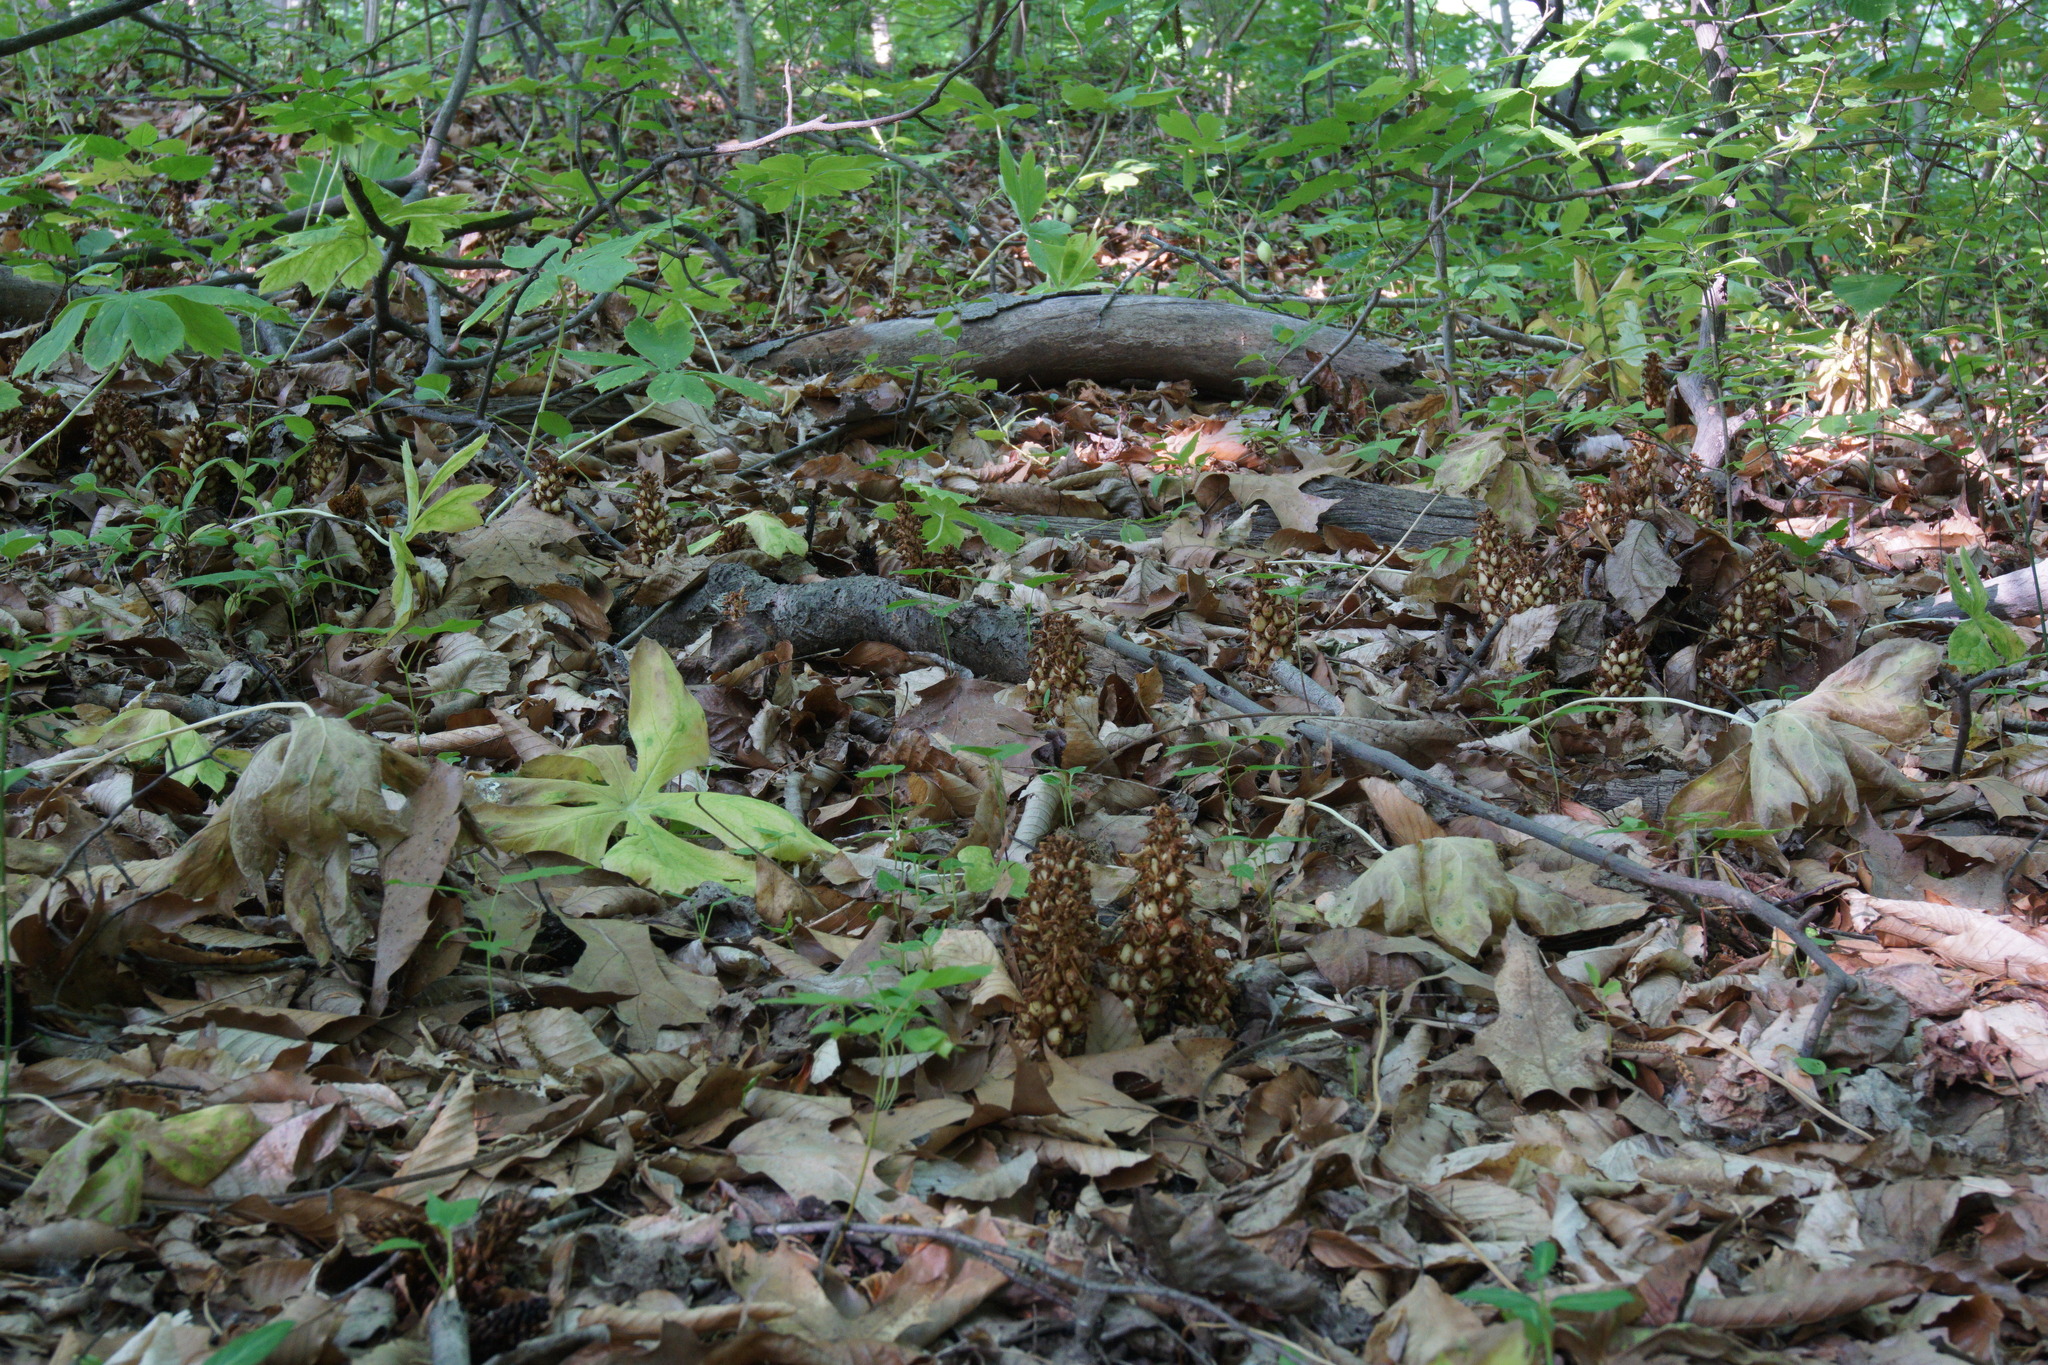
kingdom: Plantae
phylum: Tracheophyta
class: Magnoliopsida
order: Lamiales
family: Orobanchaceae
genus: Conopholis
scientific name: Conopholis americana
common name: American cancer-root
